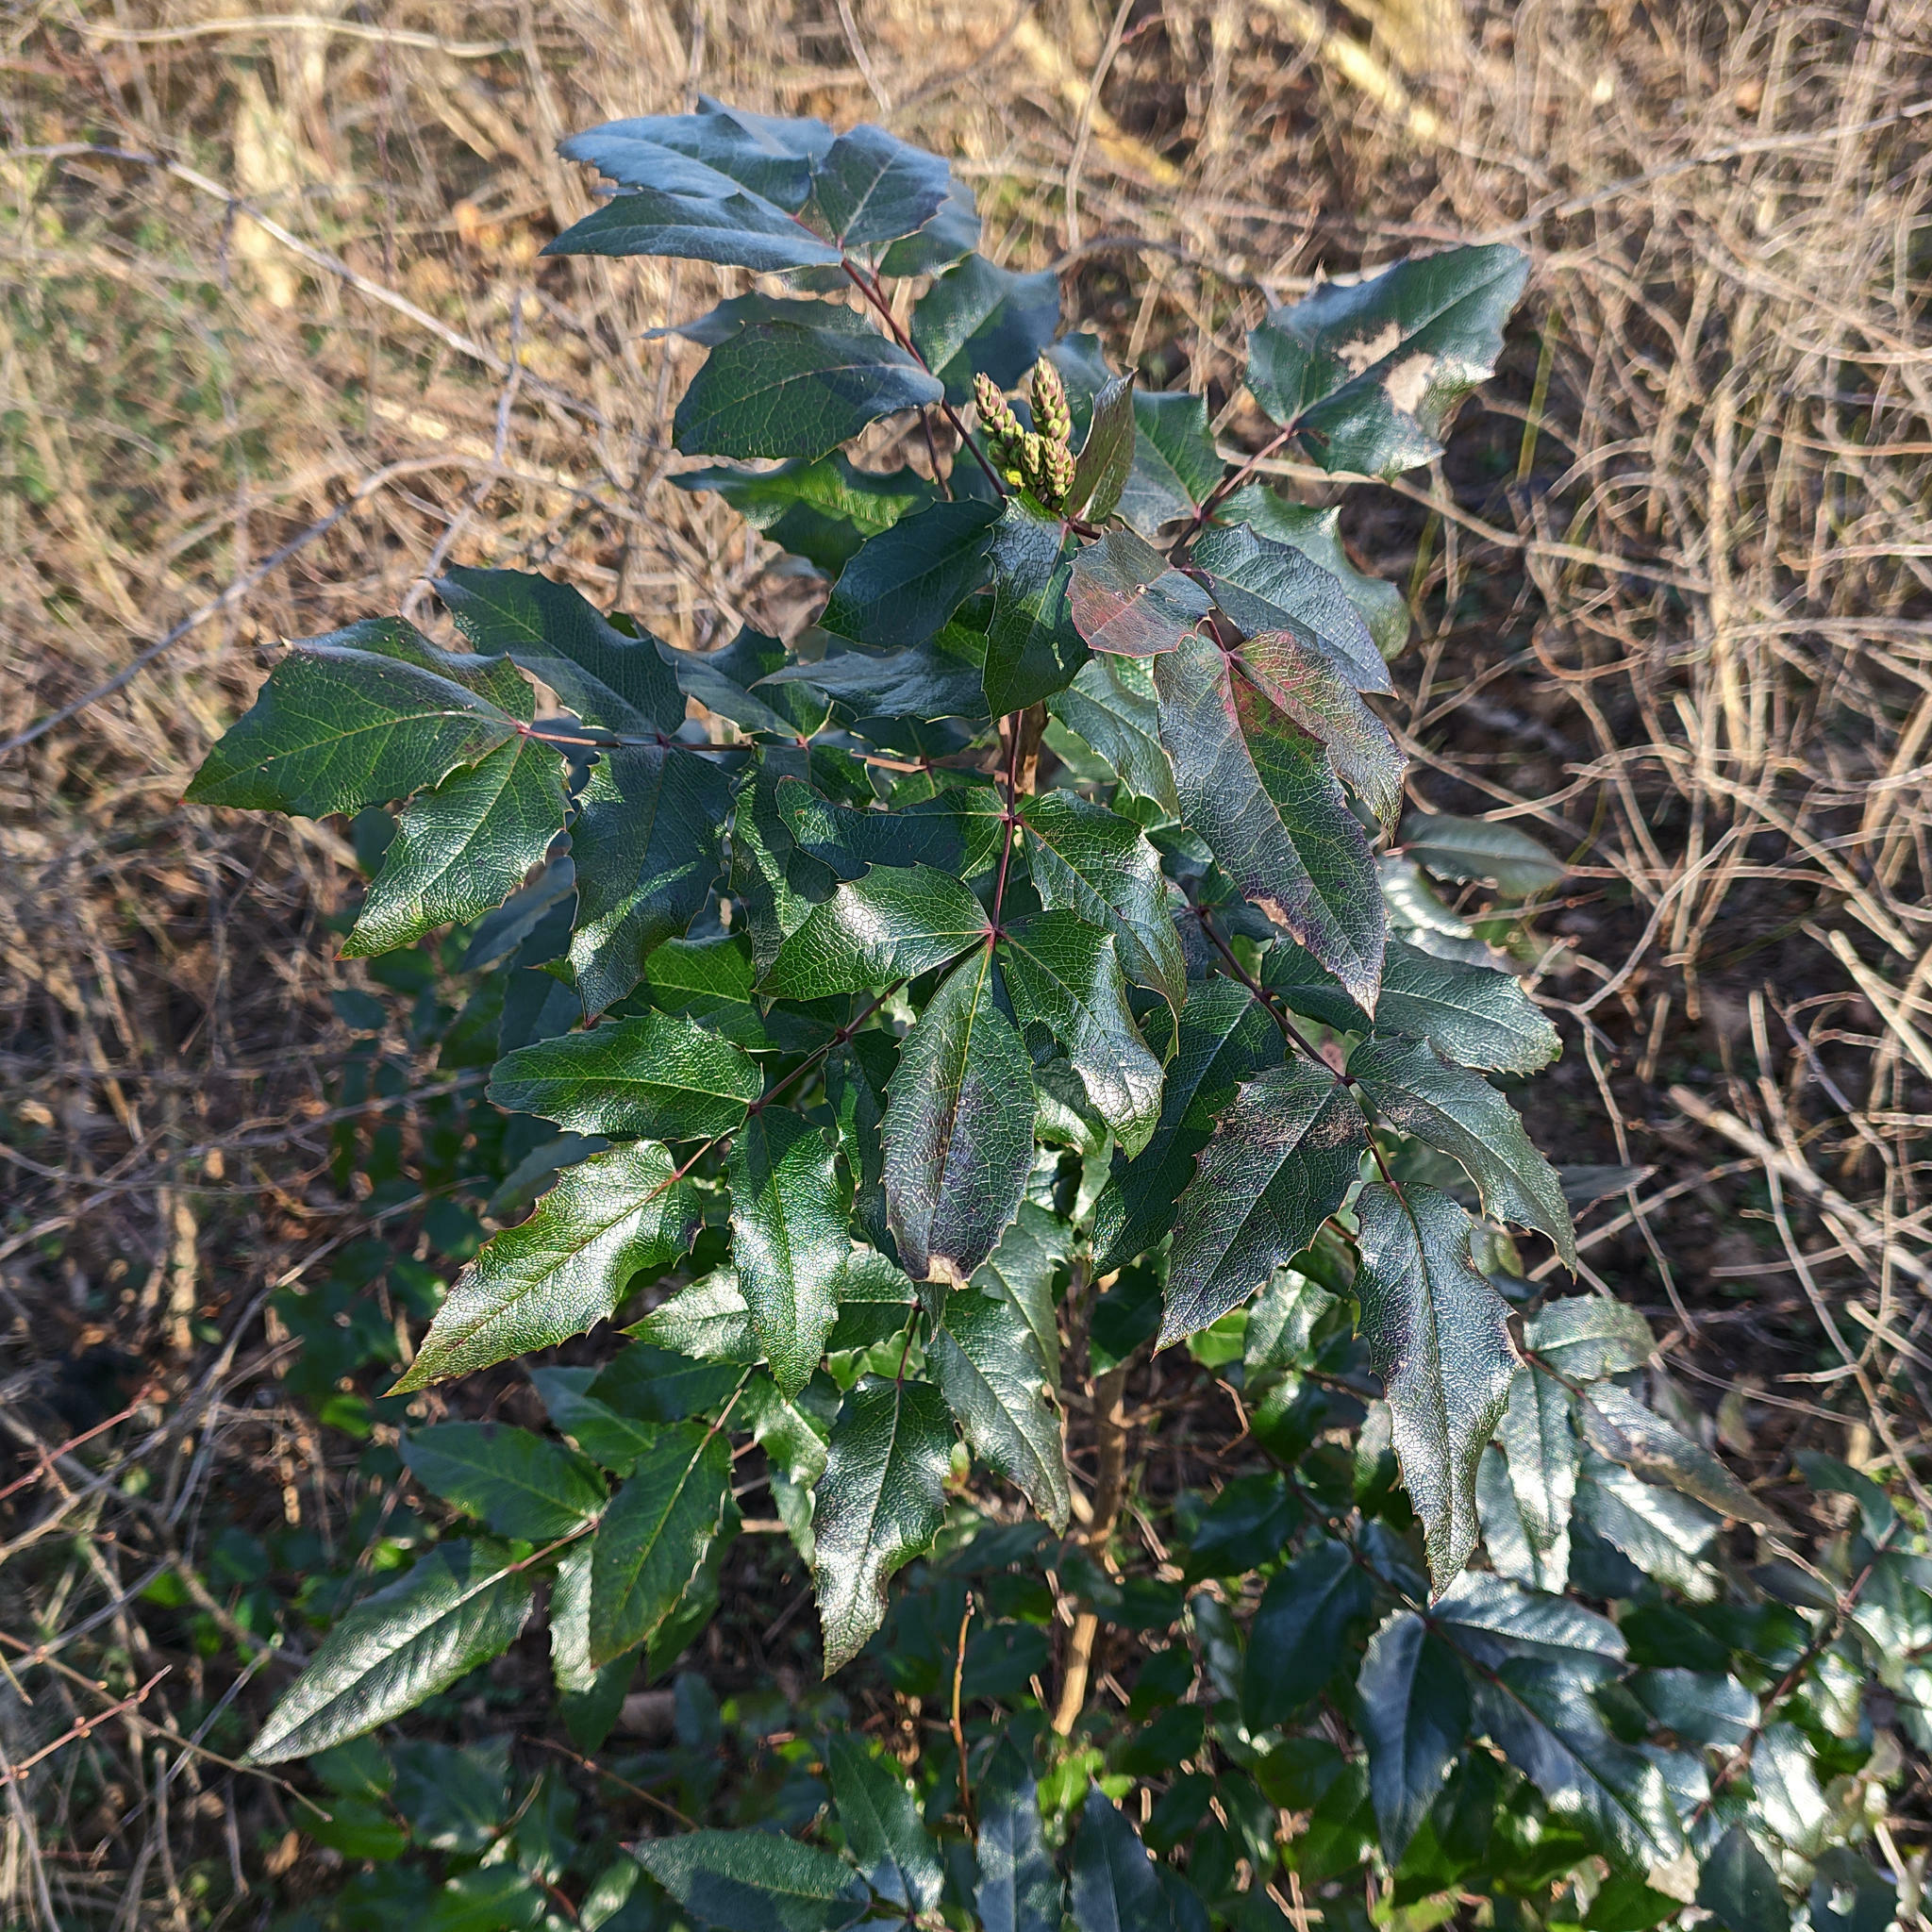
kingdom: Plantae
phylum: Tracheophyta
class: Magnoliopsida
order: Ranunculales
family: Berberidaceae
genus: Mahonia
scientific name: Mahonia aquifolium
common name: Oregon-grape
